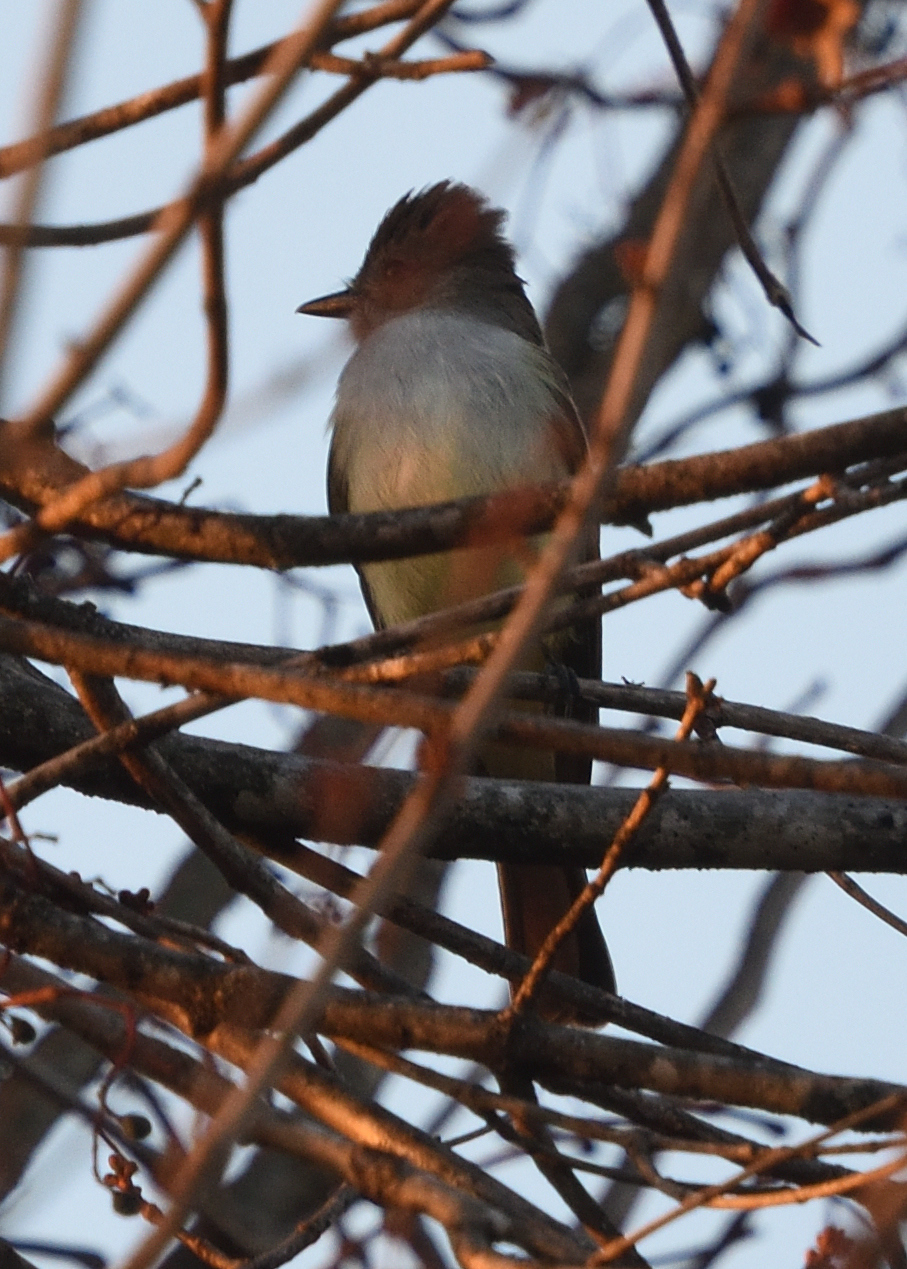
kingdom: Animalia
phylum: Chordata
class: Aves
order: Passeriformes
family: Tyrannidae
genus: Myiarchus
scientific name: Myiarchus cinerascens
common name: Ash-throated flycatcher
